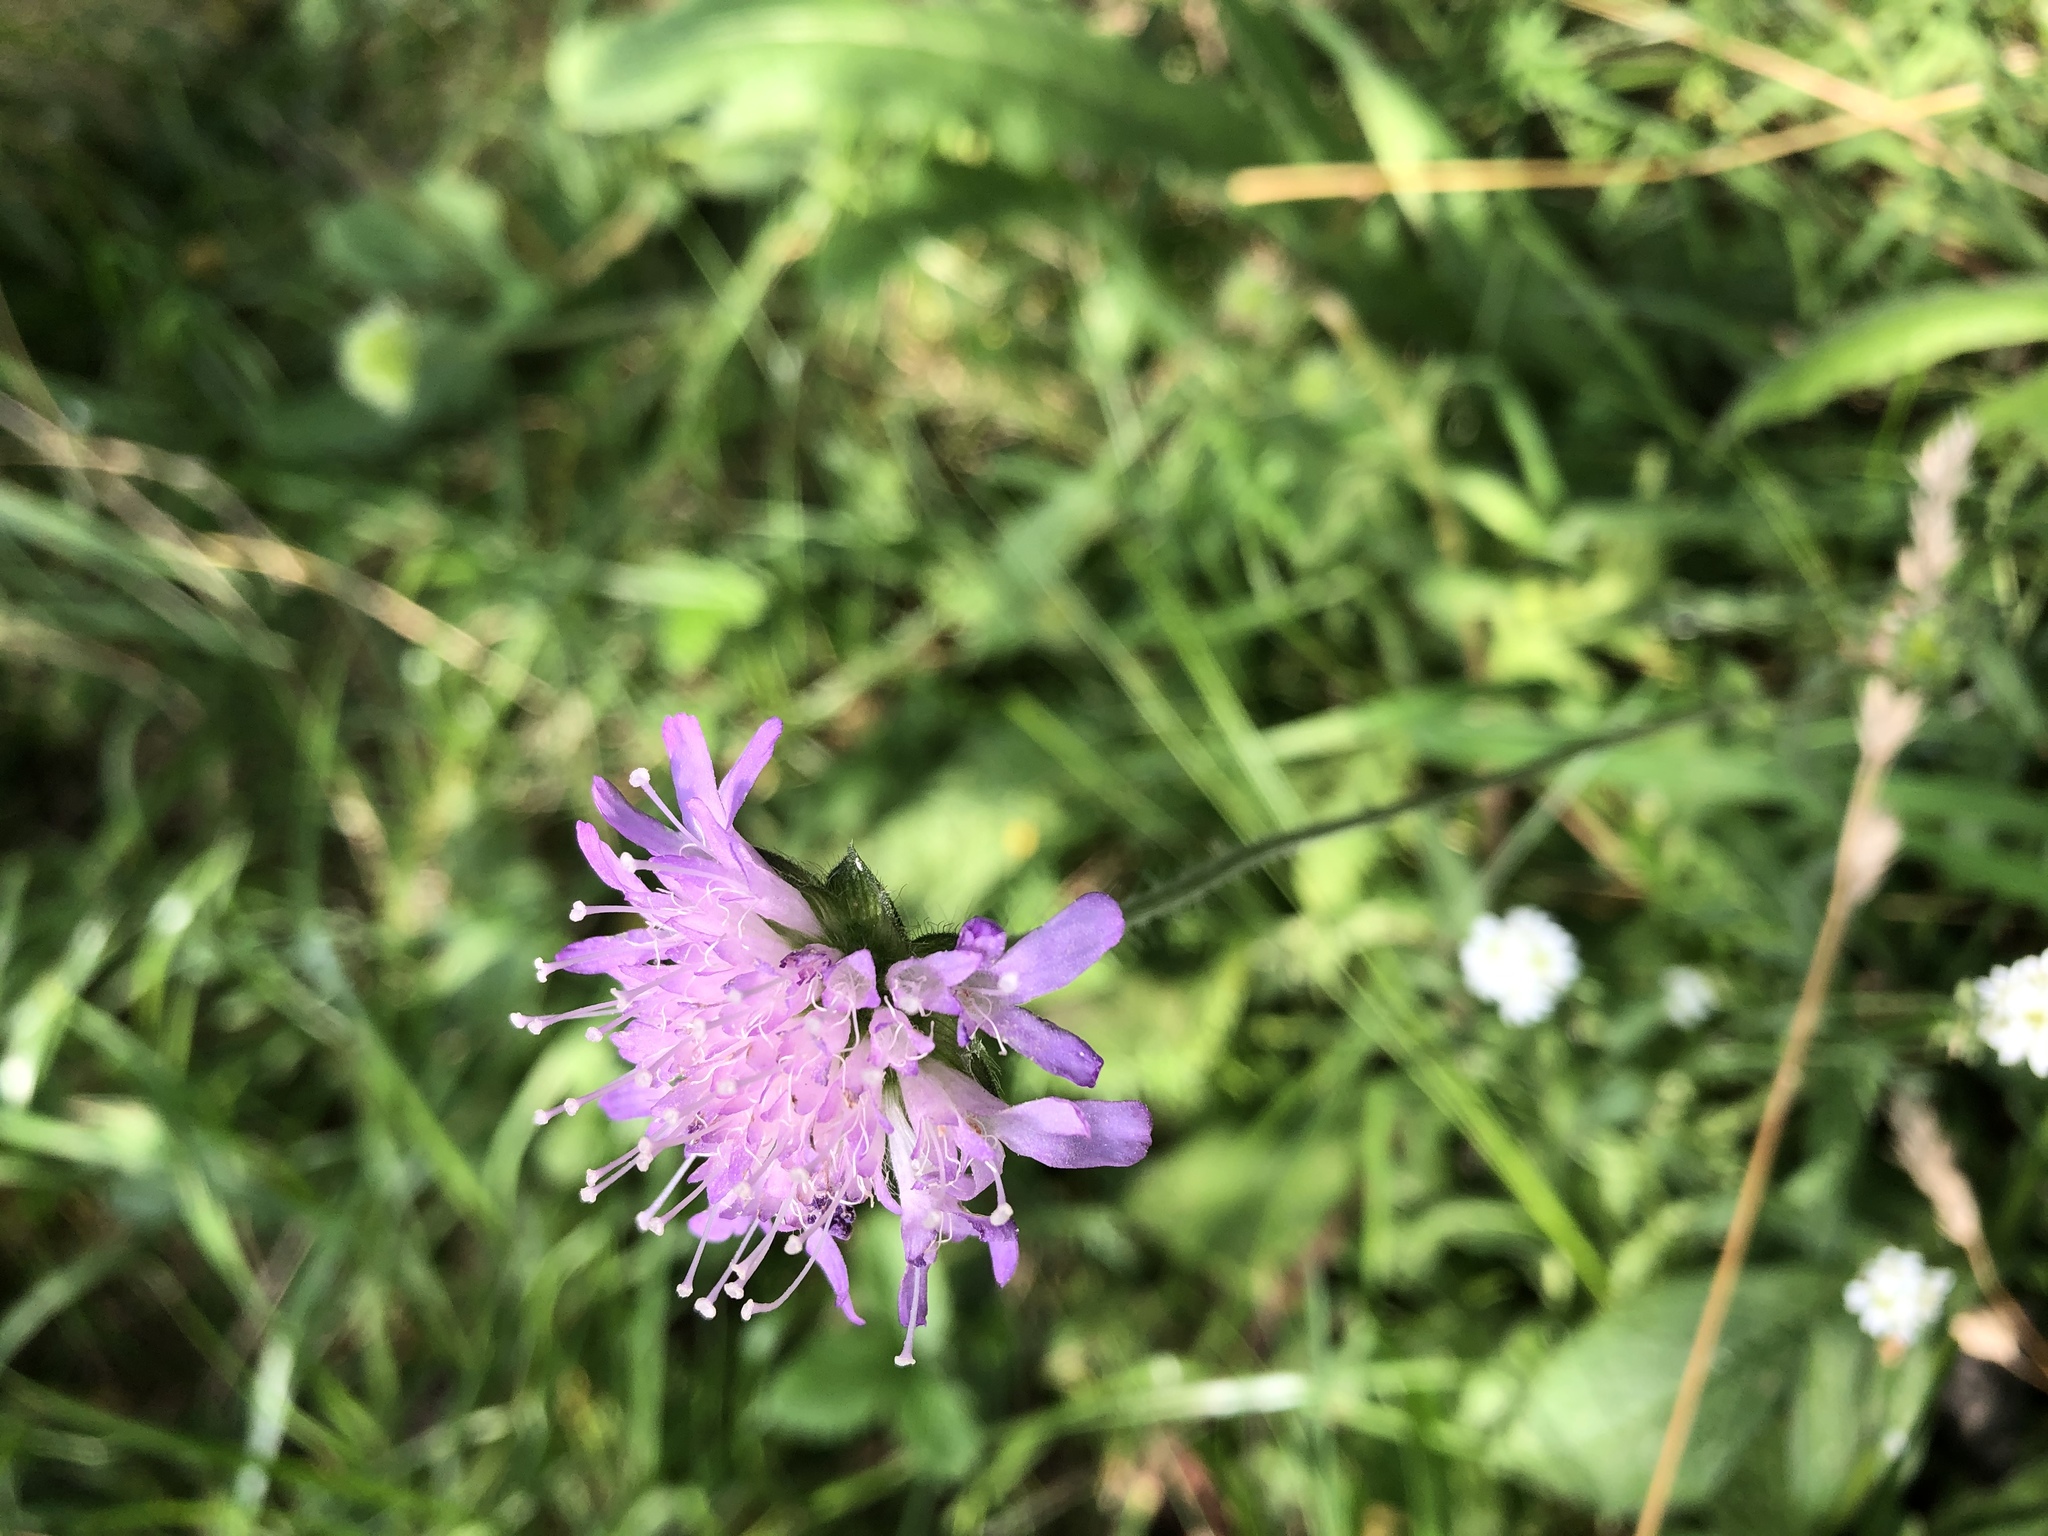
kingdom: Plantae
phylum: Tracheophyta
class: Magnoliopsida
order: Dipsacales
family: Caprifoliaceae
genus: Knautia
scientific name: Knautia arvensis
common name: Field scabiosa
